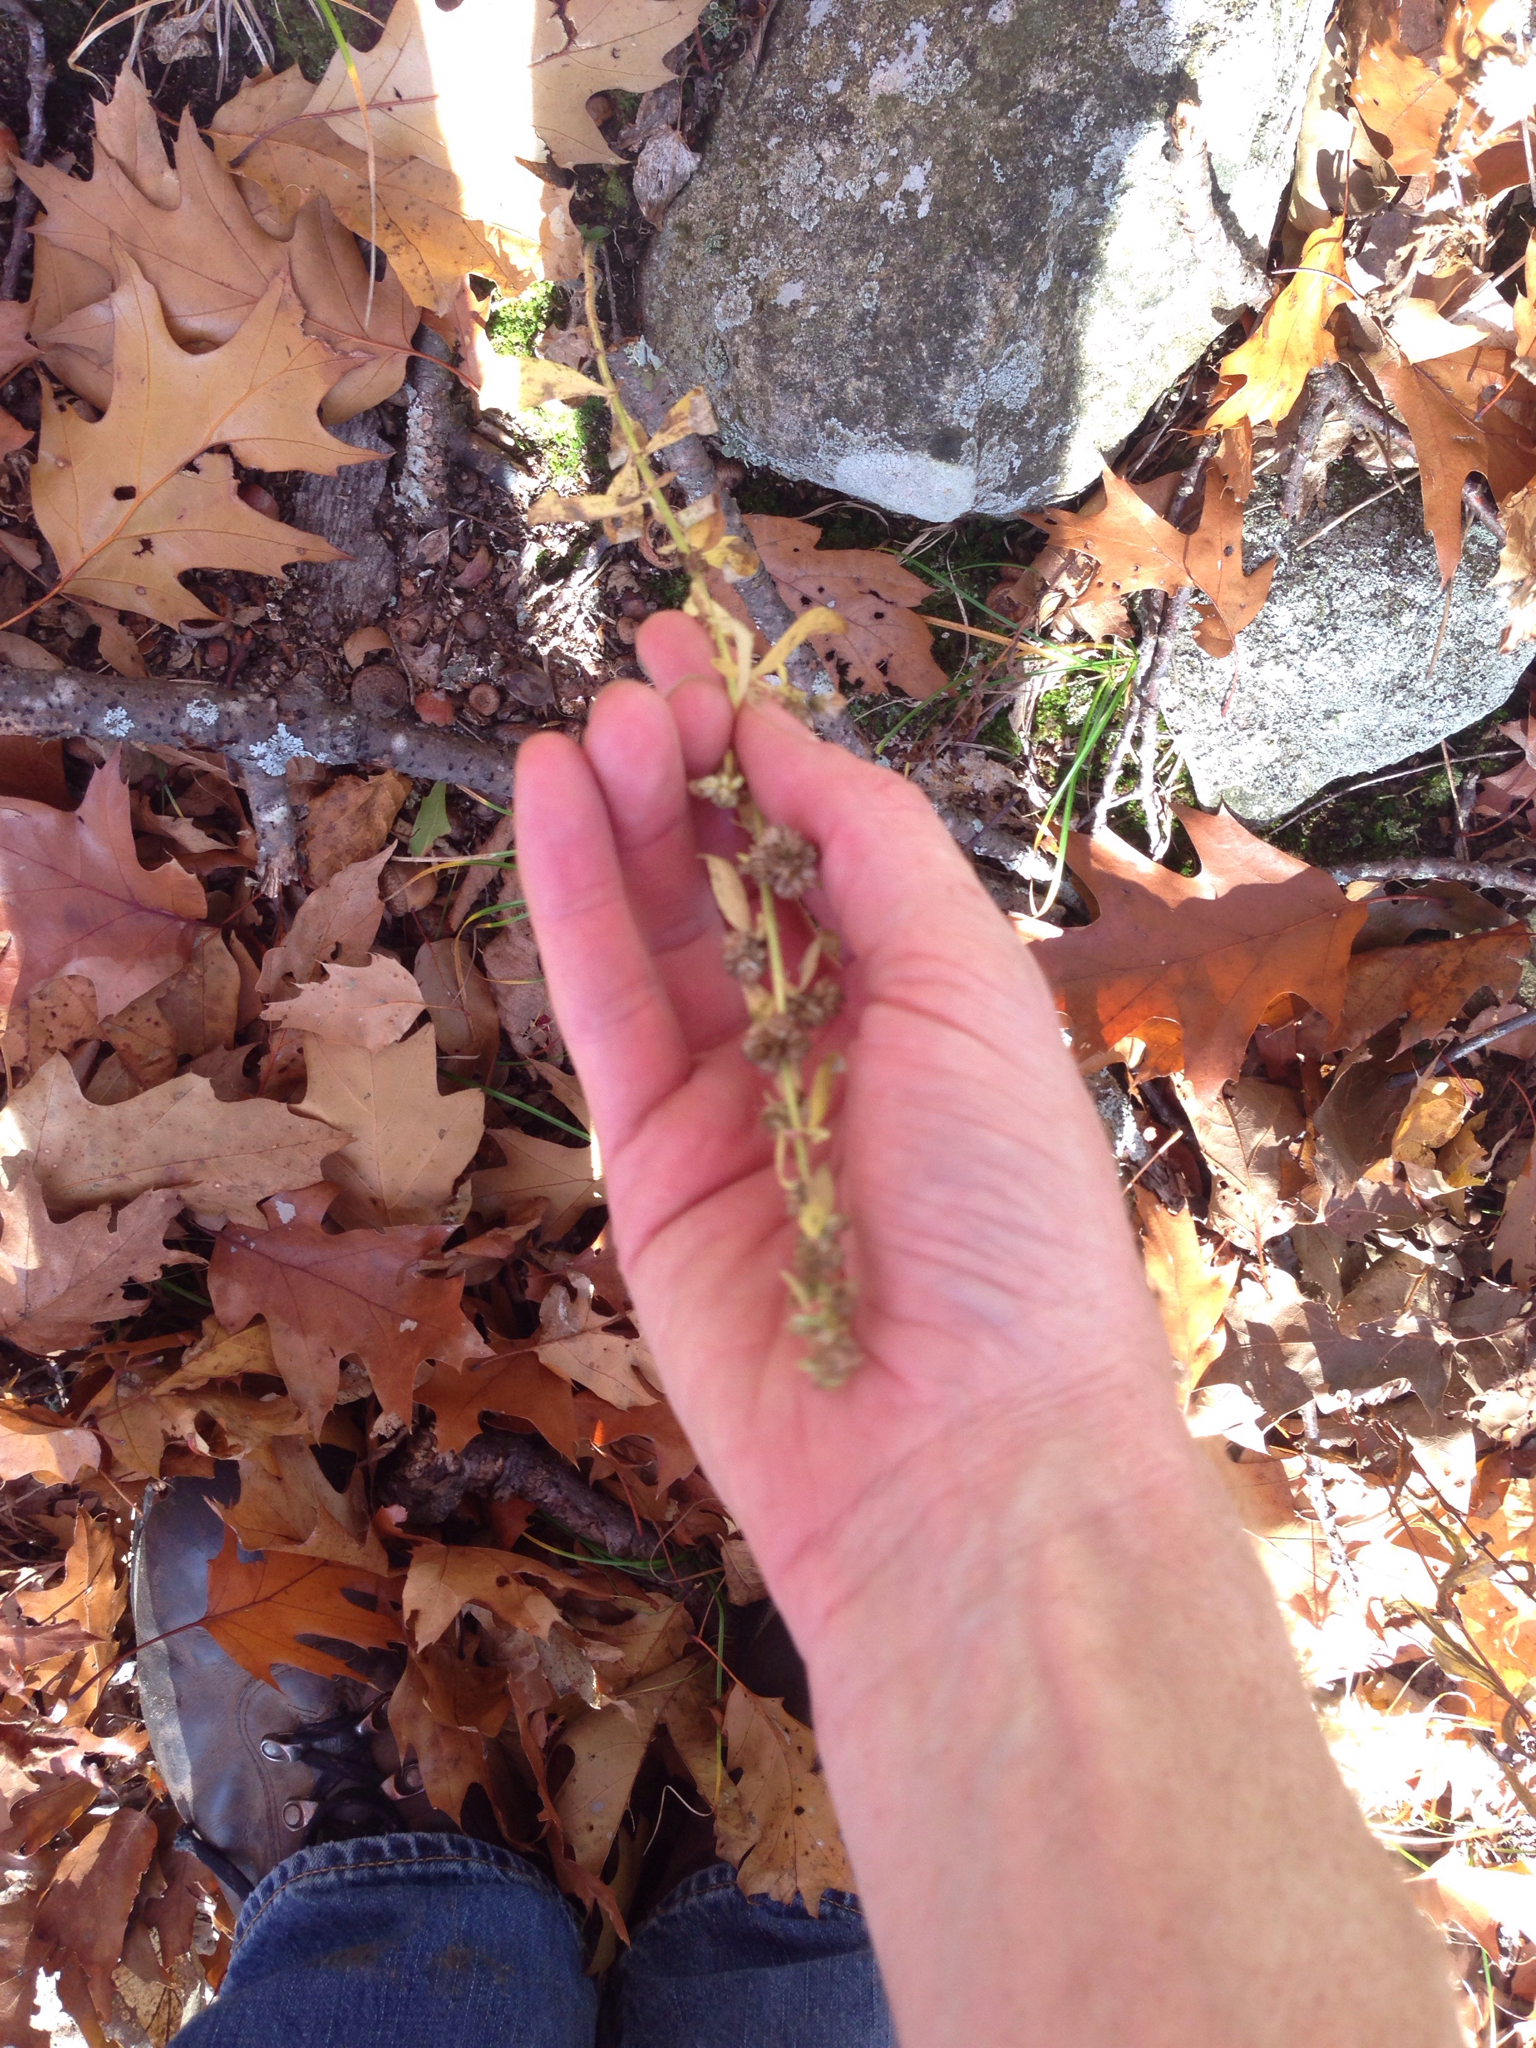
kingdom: Plantae
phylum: Tracheophyta
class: Magnoliopsida
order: Asterales
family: Asteraceae
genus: Solidago
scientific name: Solidago bicolor
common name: Silverrod
